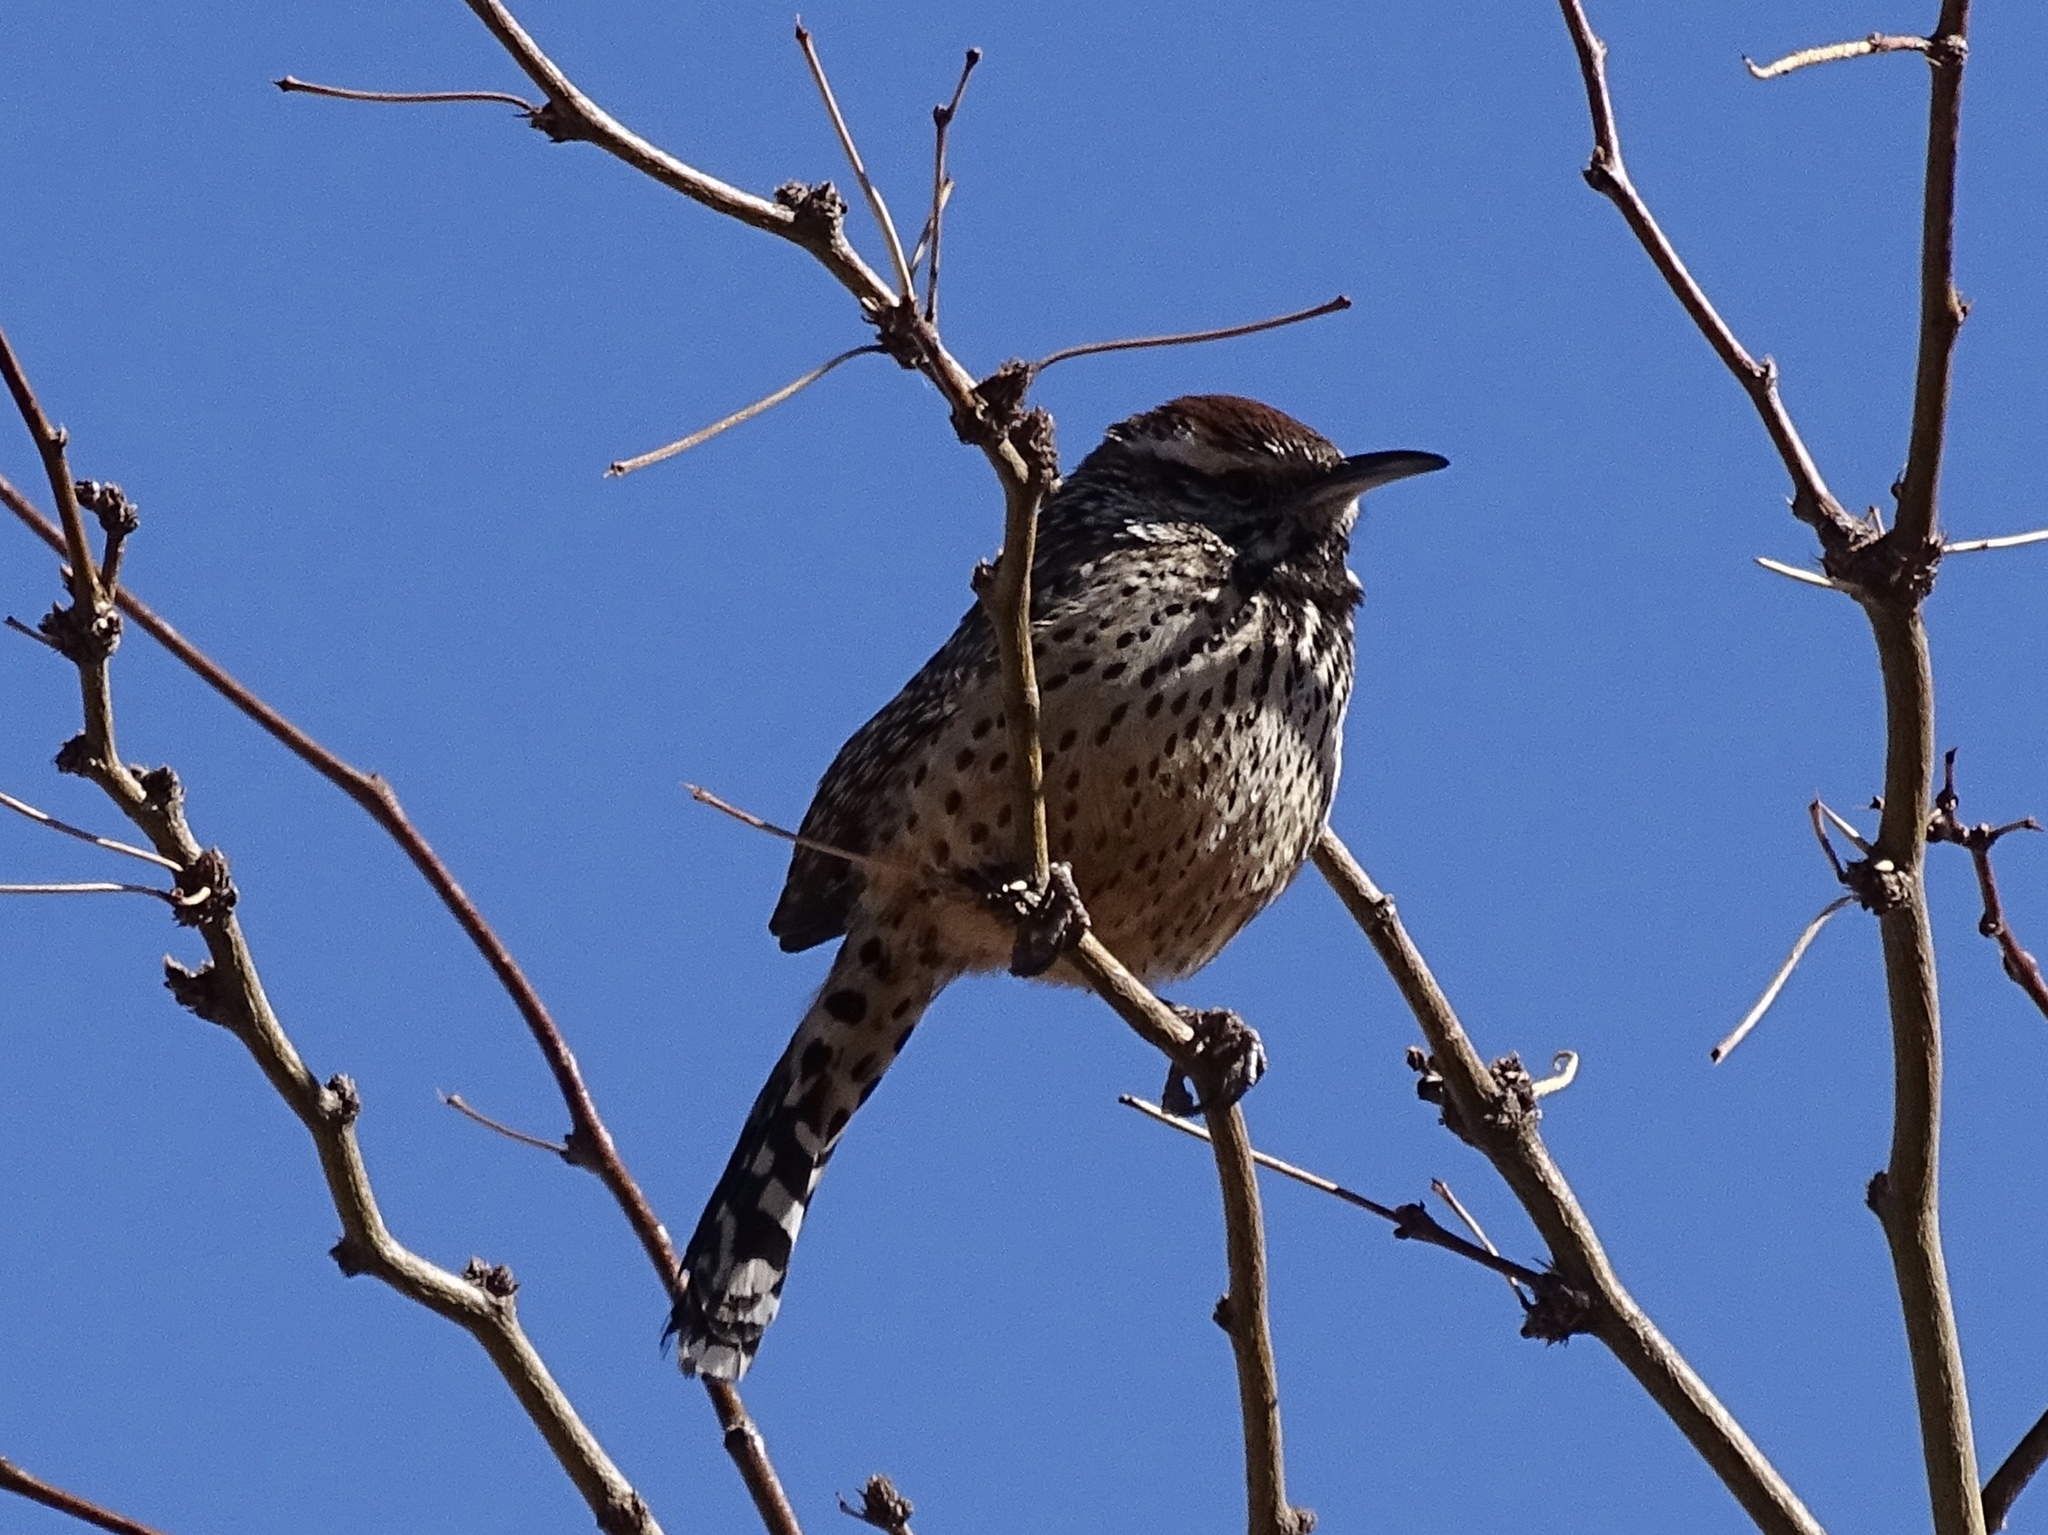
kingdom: Animalia
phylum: Chordata
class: Aves
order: Passeriformes
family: Troglodytidae
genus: Campylorhynchus
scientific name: Campylorhynchus brunneicapillus
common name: Cactus wren
